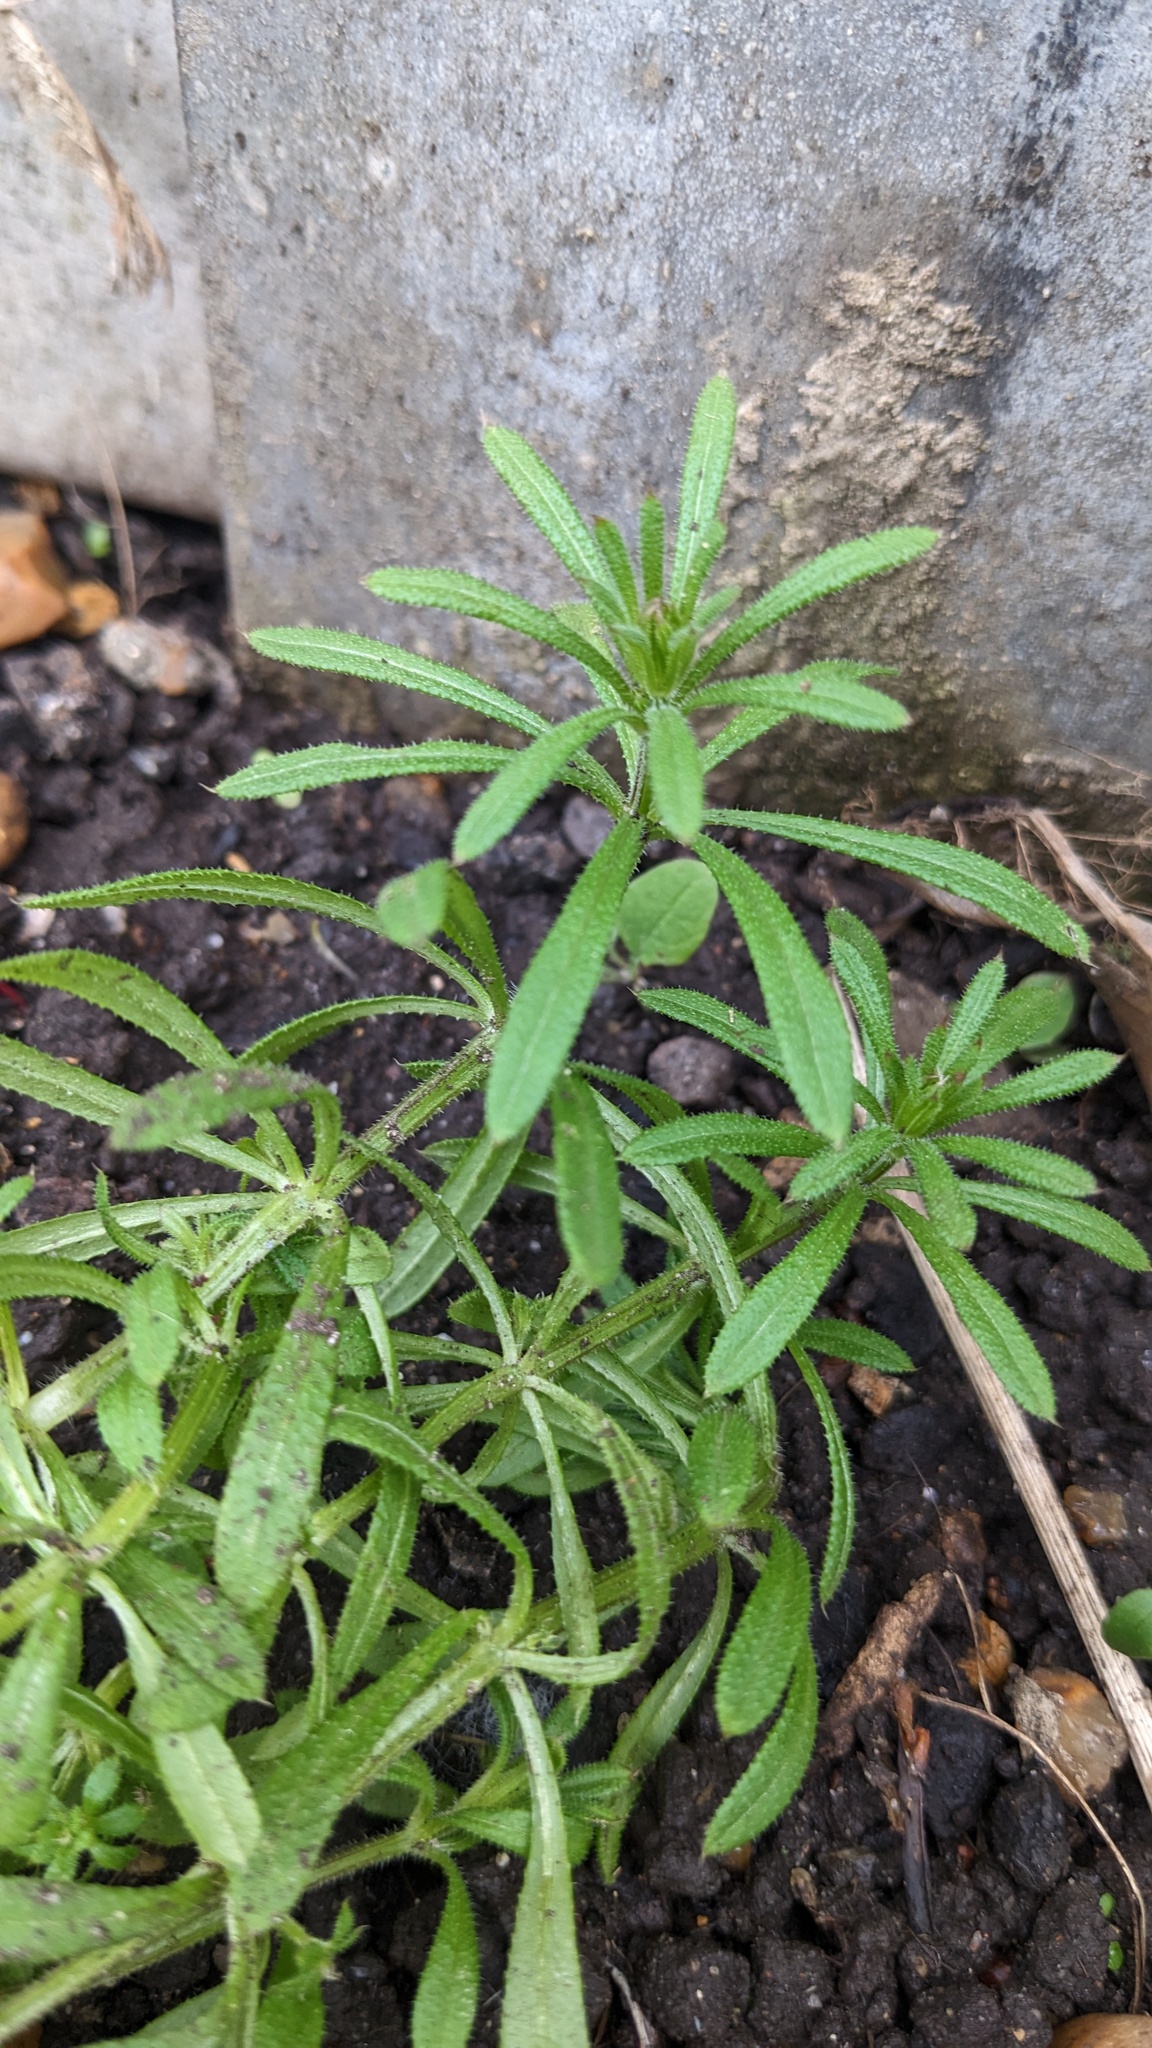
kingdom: Plantae
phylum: Tracheophyta
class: Magnoliopsida
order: Gentianales
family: Rubiaceae
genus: Galium
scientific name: Galium aparine
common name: Cleavers
